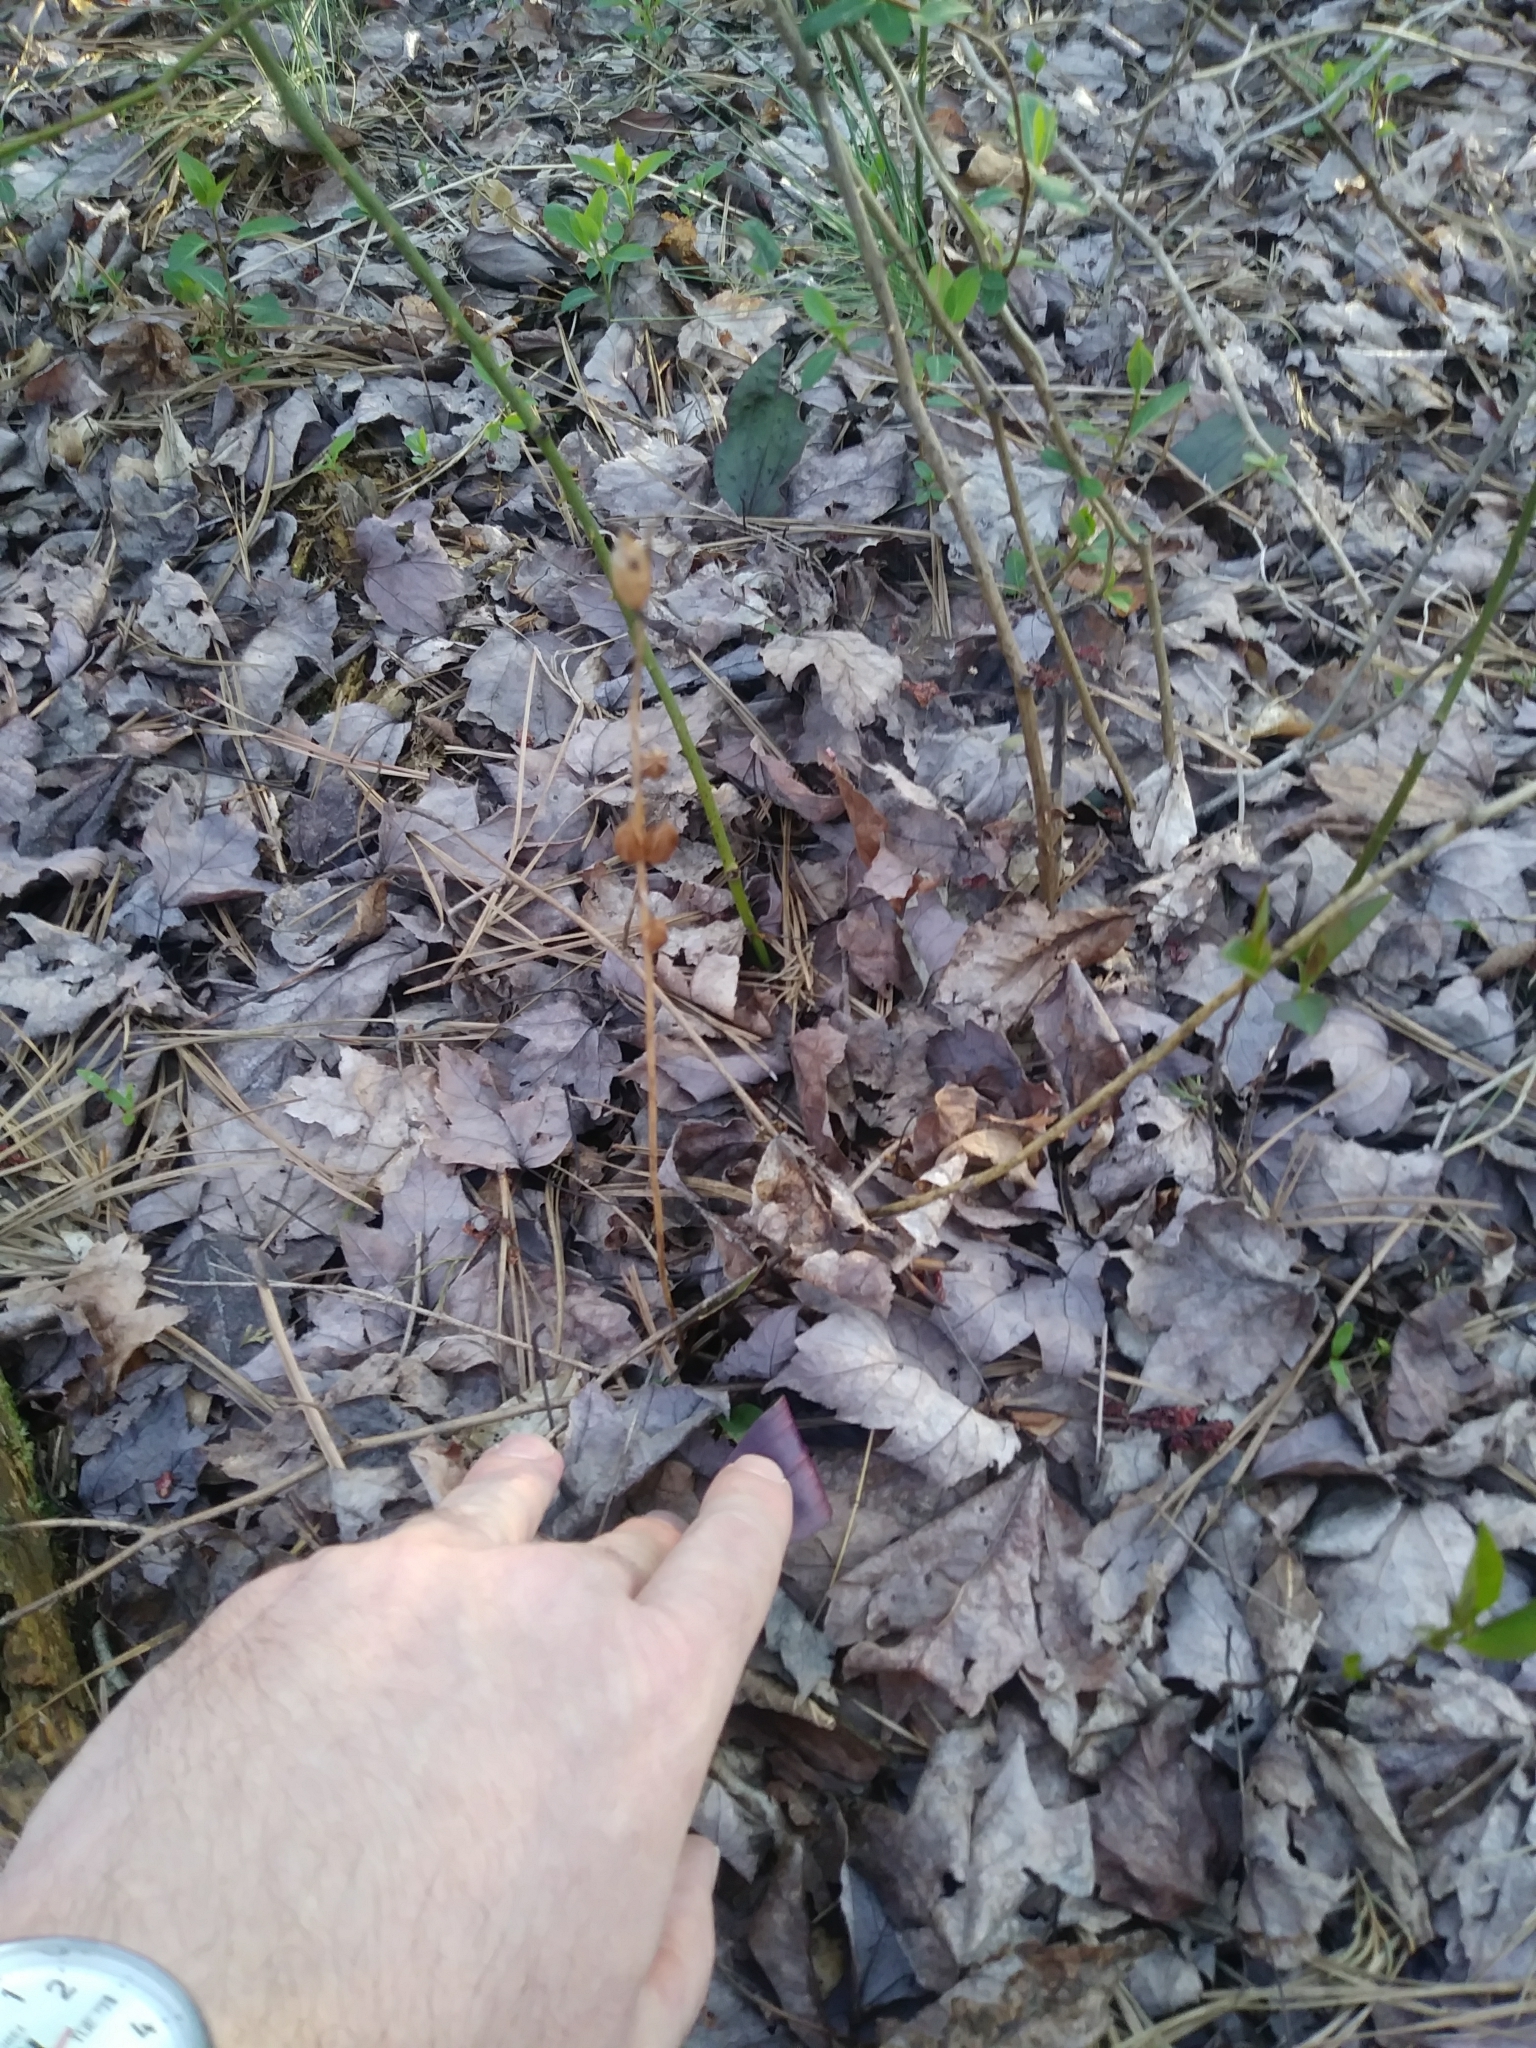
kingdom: Plantae
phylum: Tracheophyta
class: Liliopsida
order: Asparagales
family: Orchidaceae
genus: Tipularia
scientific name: Tipularia discolor
